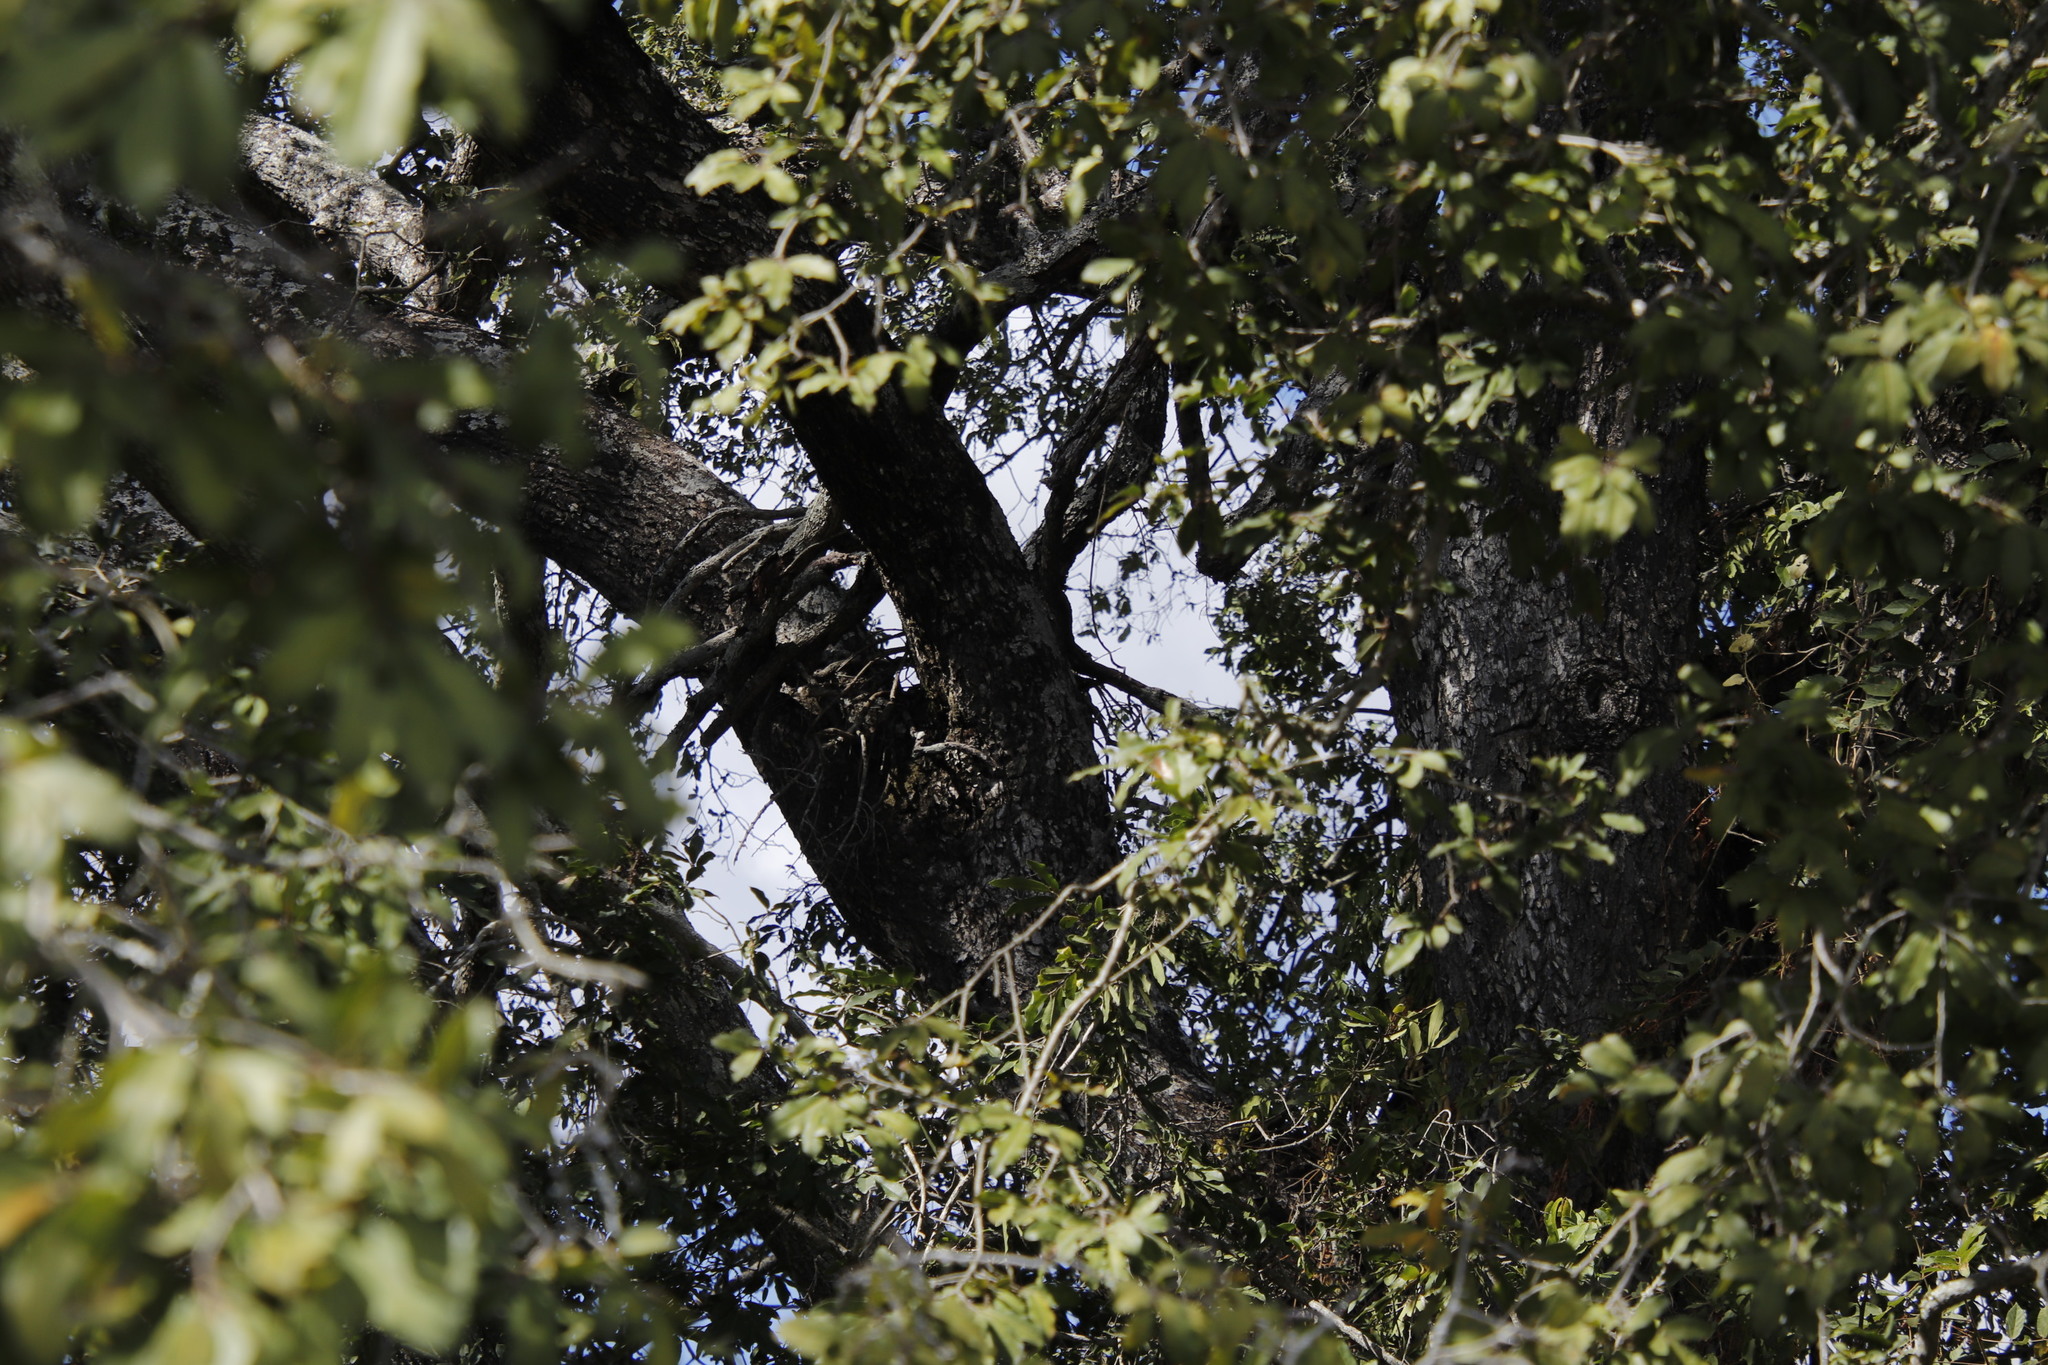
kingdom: Plantae
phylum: Tracheophyta
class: Magnoliopsida
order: Ericales
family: Ebenaceae
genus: Diospyros
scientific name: Diospyros mespiliformis
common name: Ebony diospyros
